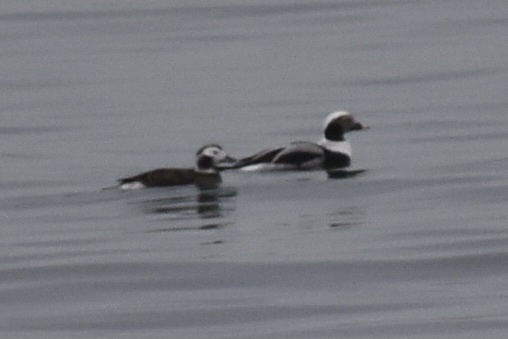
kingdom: Animalia
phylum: Chordata
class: Aves
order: Anseriformes
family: Anatidae
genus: Clangula
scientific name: Clangula hyemalis
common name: Long-tailed duck
